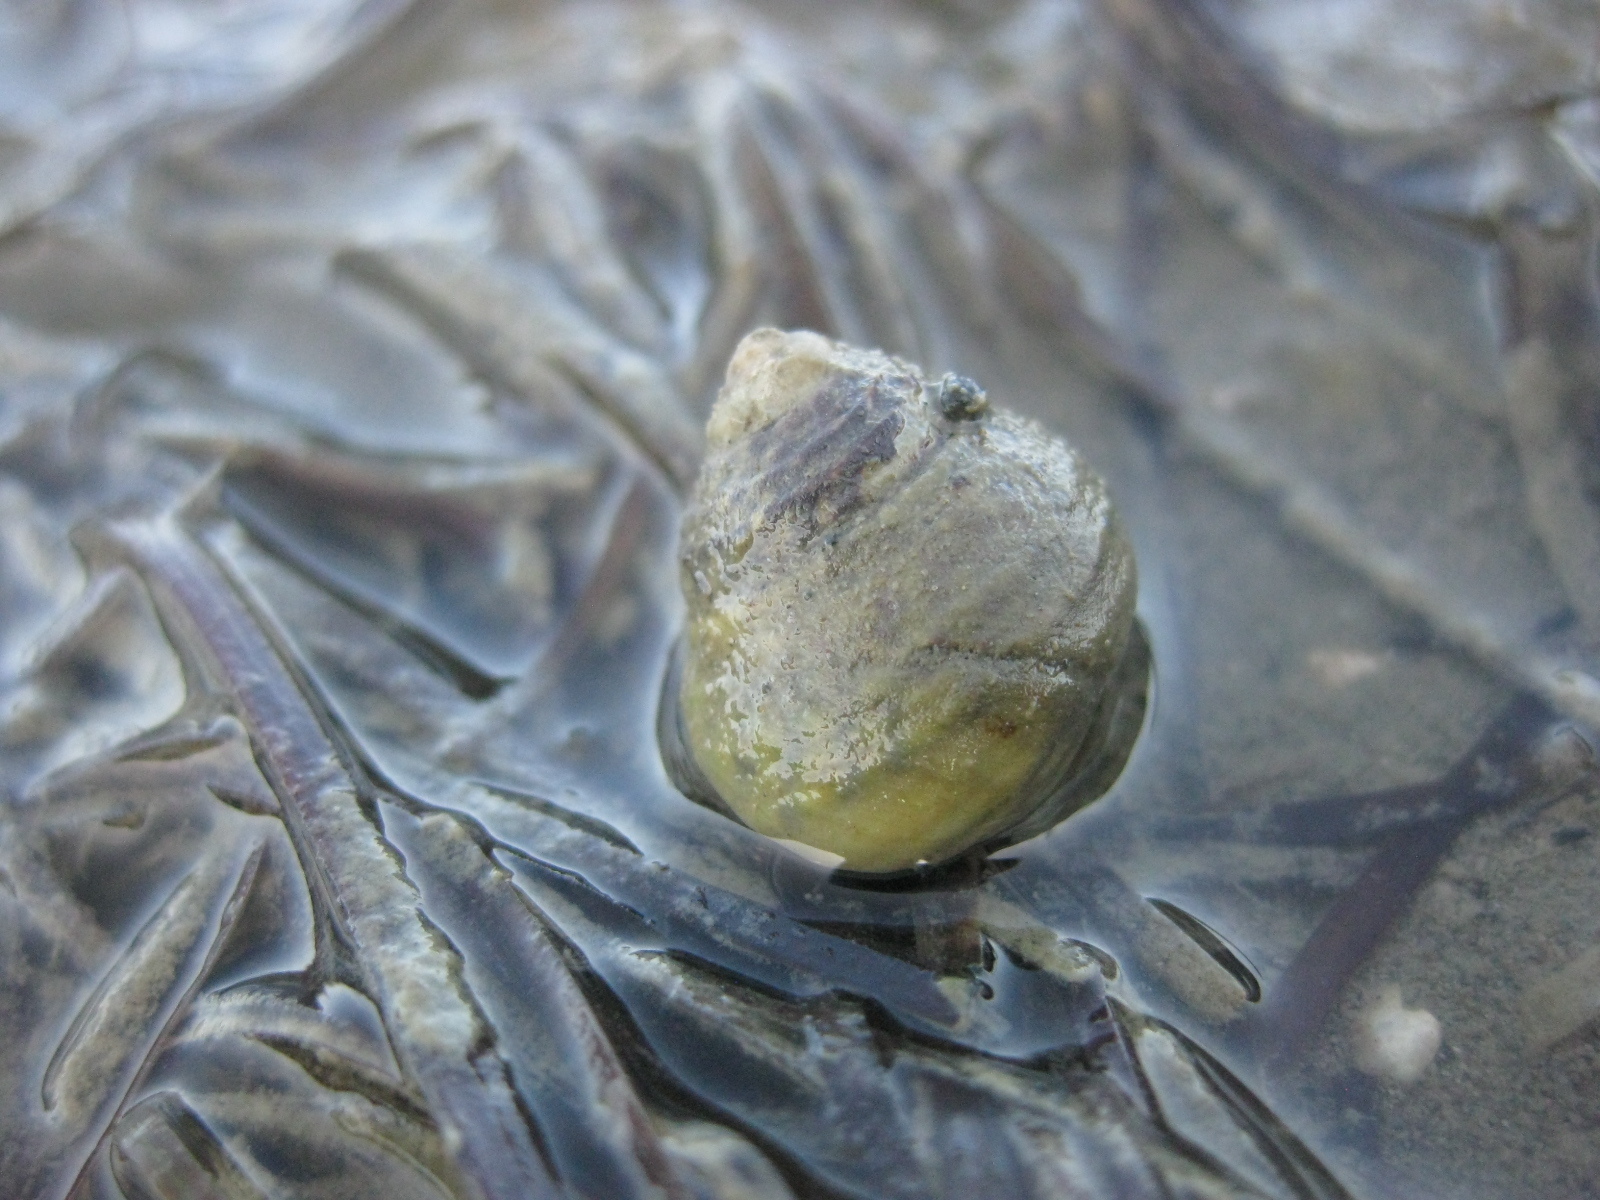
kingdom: Animalia
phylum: Mollusca
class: Gastropoda
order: Trochida
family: Trochidae
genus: Diloma
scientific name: Diloma subrostratum
